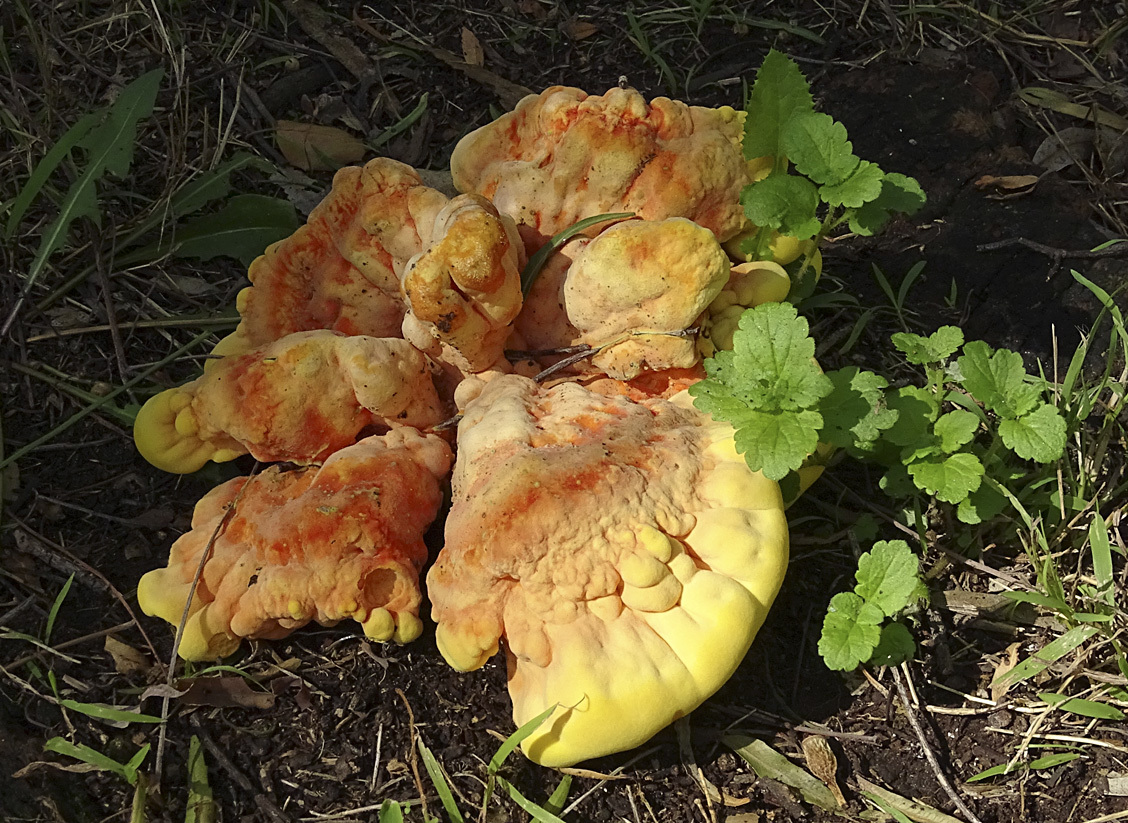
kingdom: Fungi
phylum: Basidiomycota
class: Agaricomycetes
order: Polyporales
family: Laetiporaceae
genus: Laetiporus
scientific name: Laetiporus gilbertsonii
